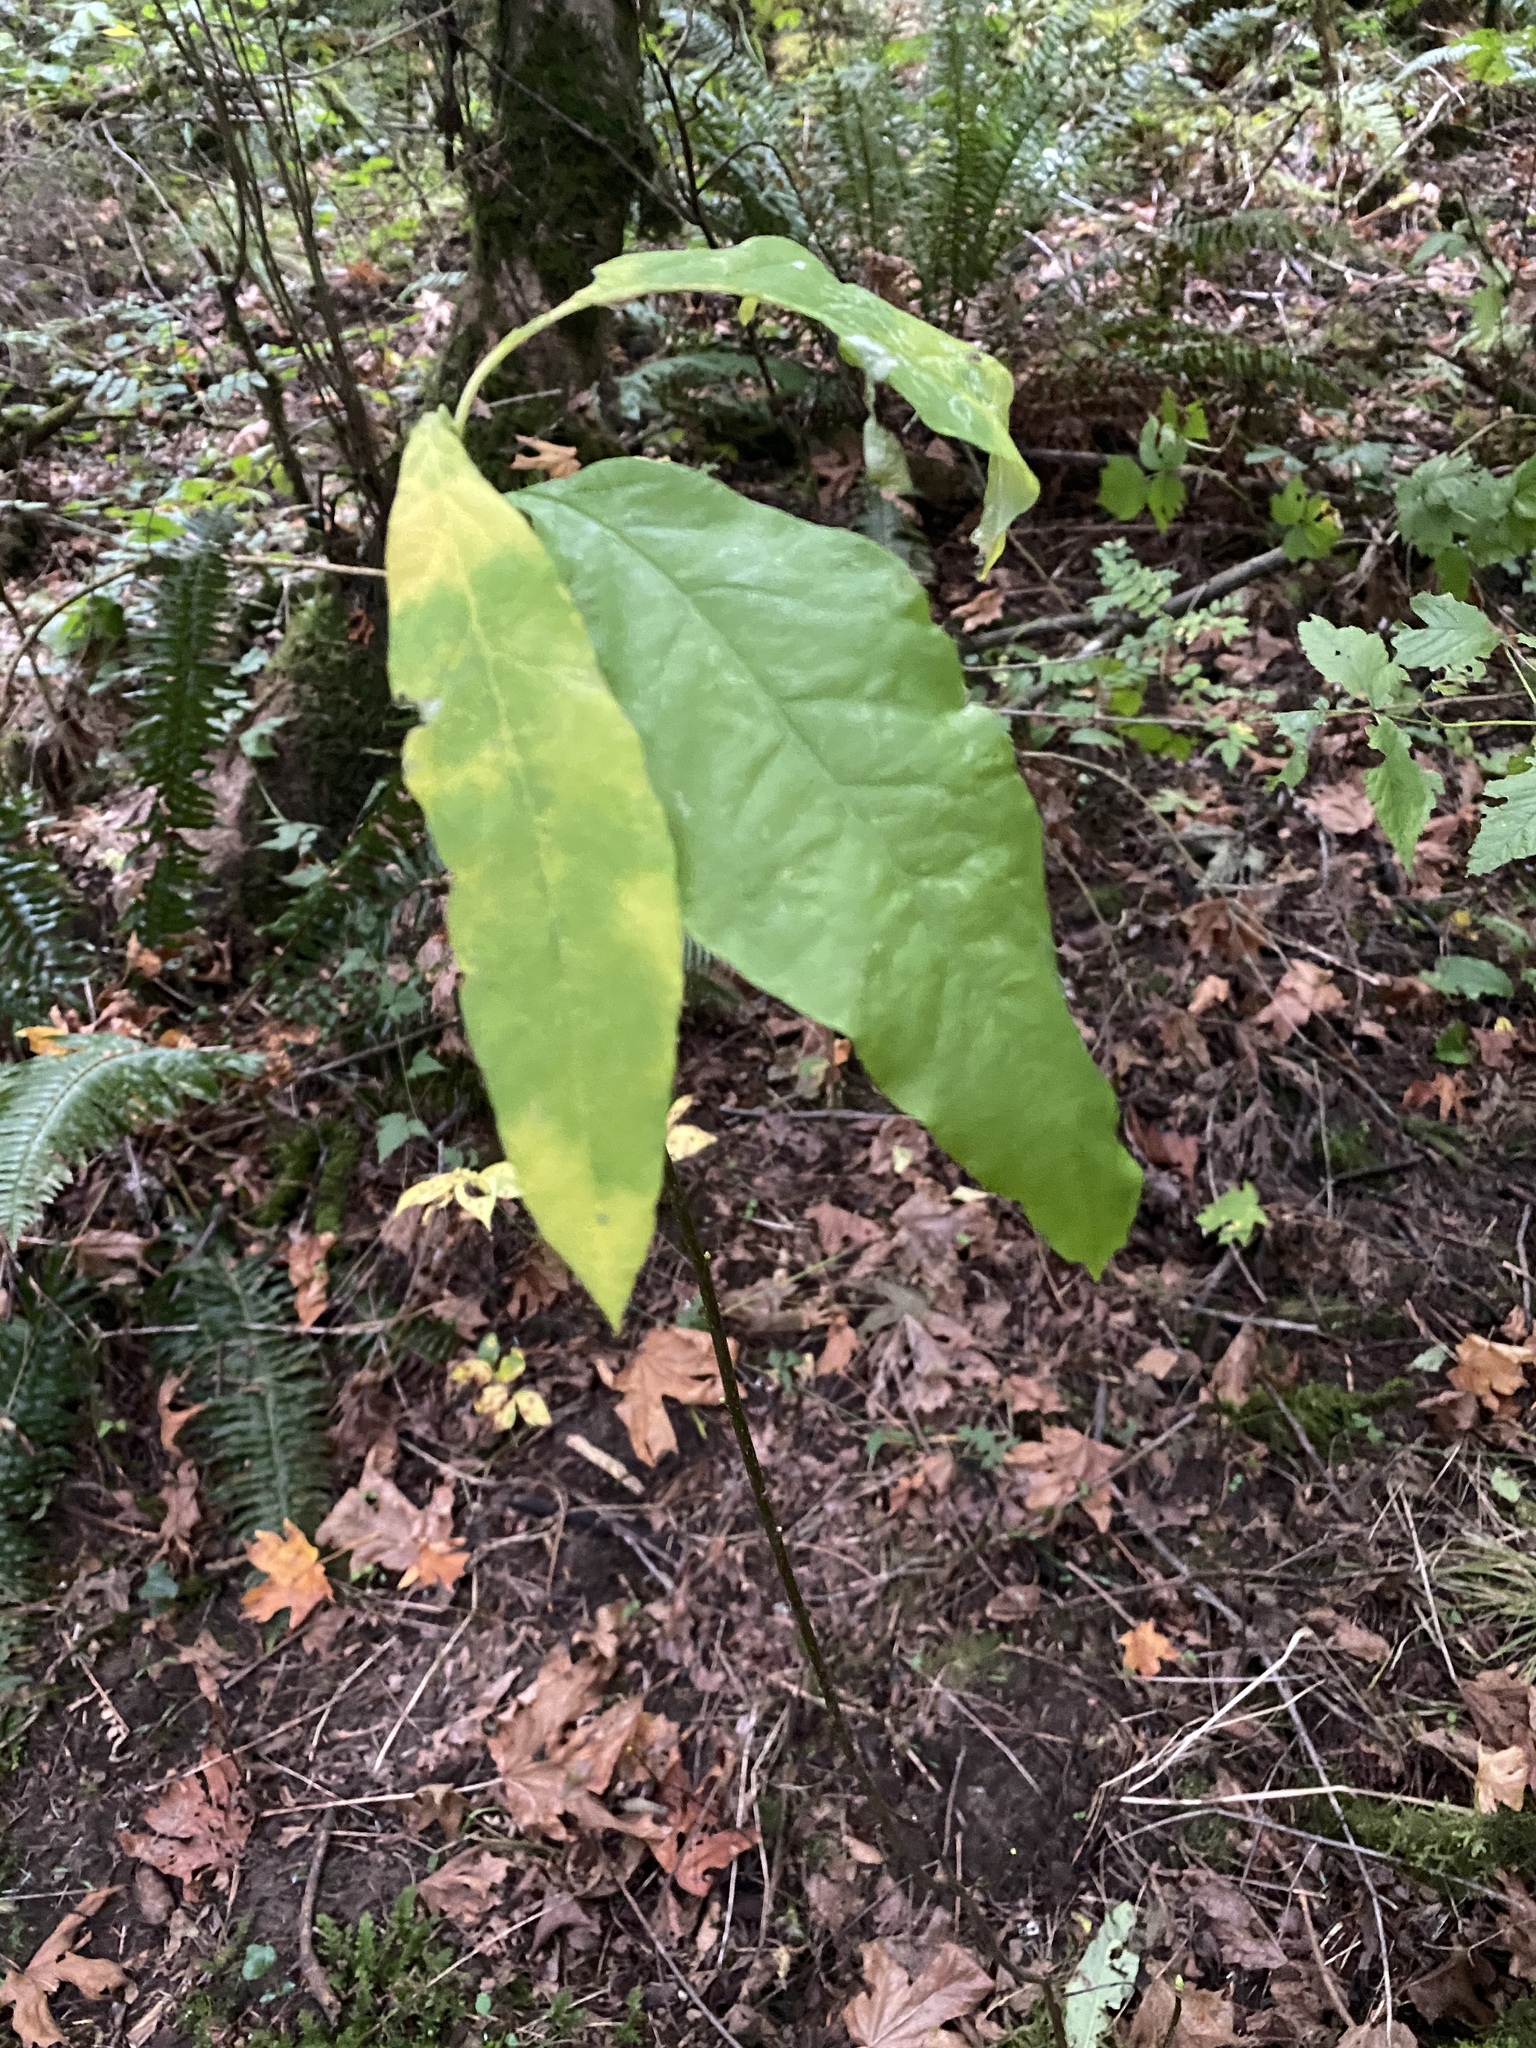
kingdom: Plantae
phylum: Tracheophyta
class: Magnoliopsida
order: Rosales
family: Rosaceae
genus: Oemleria
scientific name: Oemleria cerasiformis
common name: Osoberry
